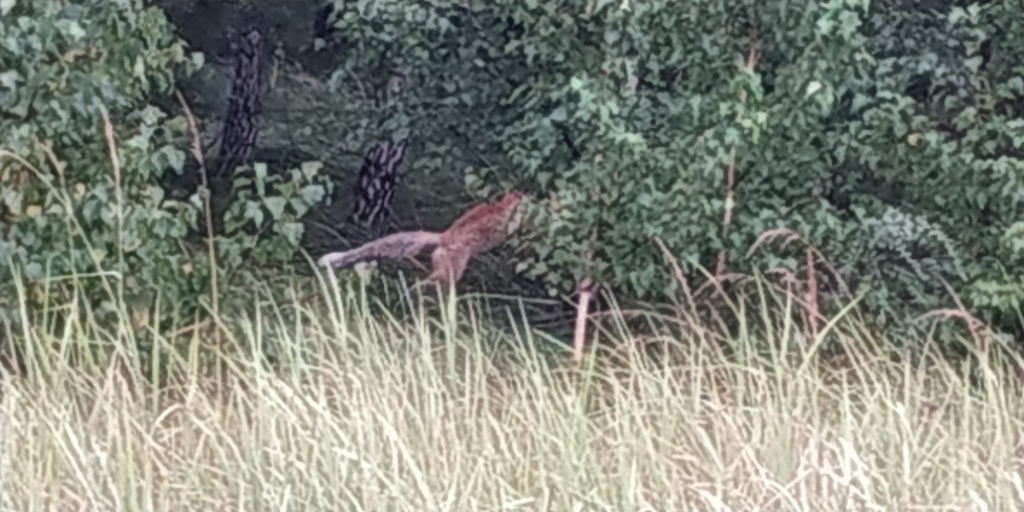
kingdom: Animalia
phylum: Chordata
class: Mammalia
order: Carnivora
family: Canidae
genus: Vulpes
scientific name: Vulpes vulpes
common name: Red fox
